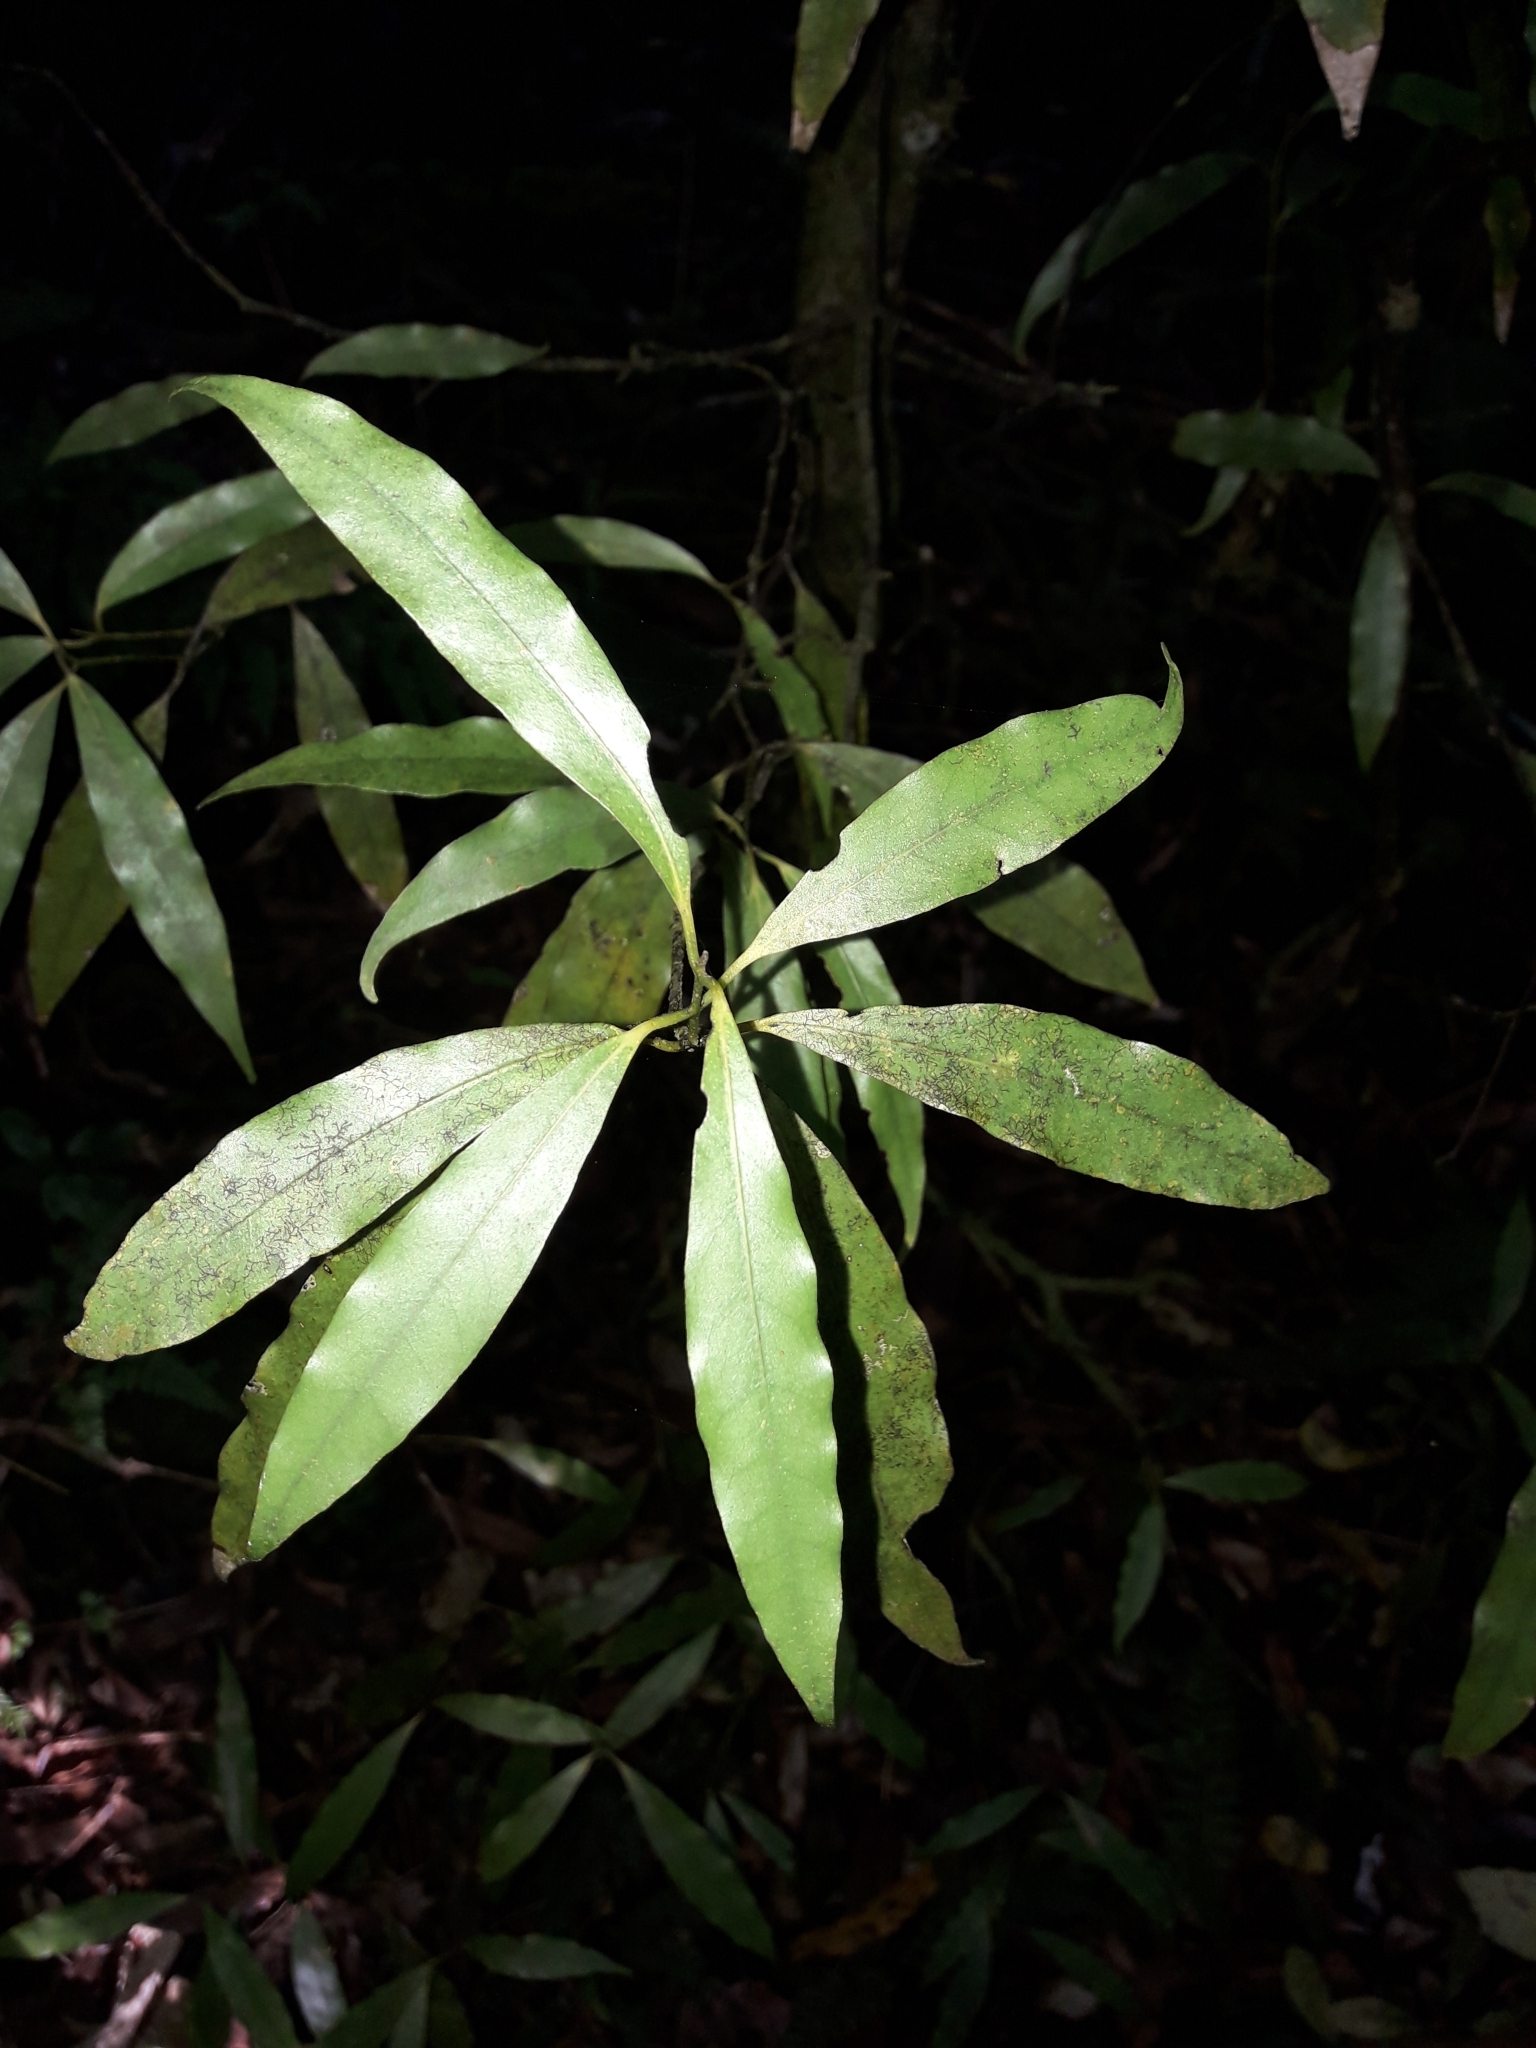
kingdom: Plantae
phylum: Tracheophyta
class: Magnoliopsida
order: Laurales
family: Lauraceae
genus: Beilschmiedia
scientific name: Beilschmiedia tawa
